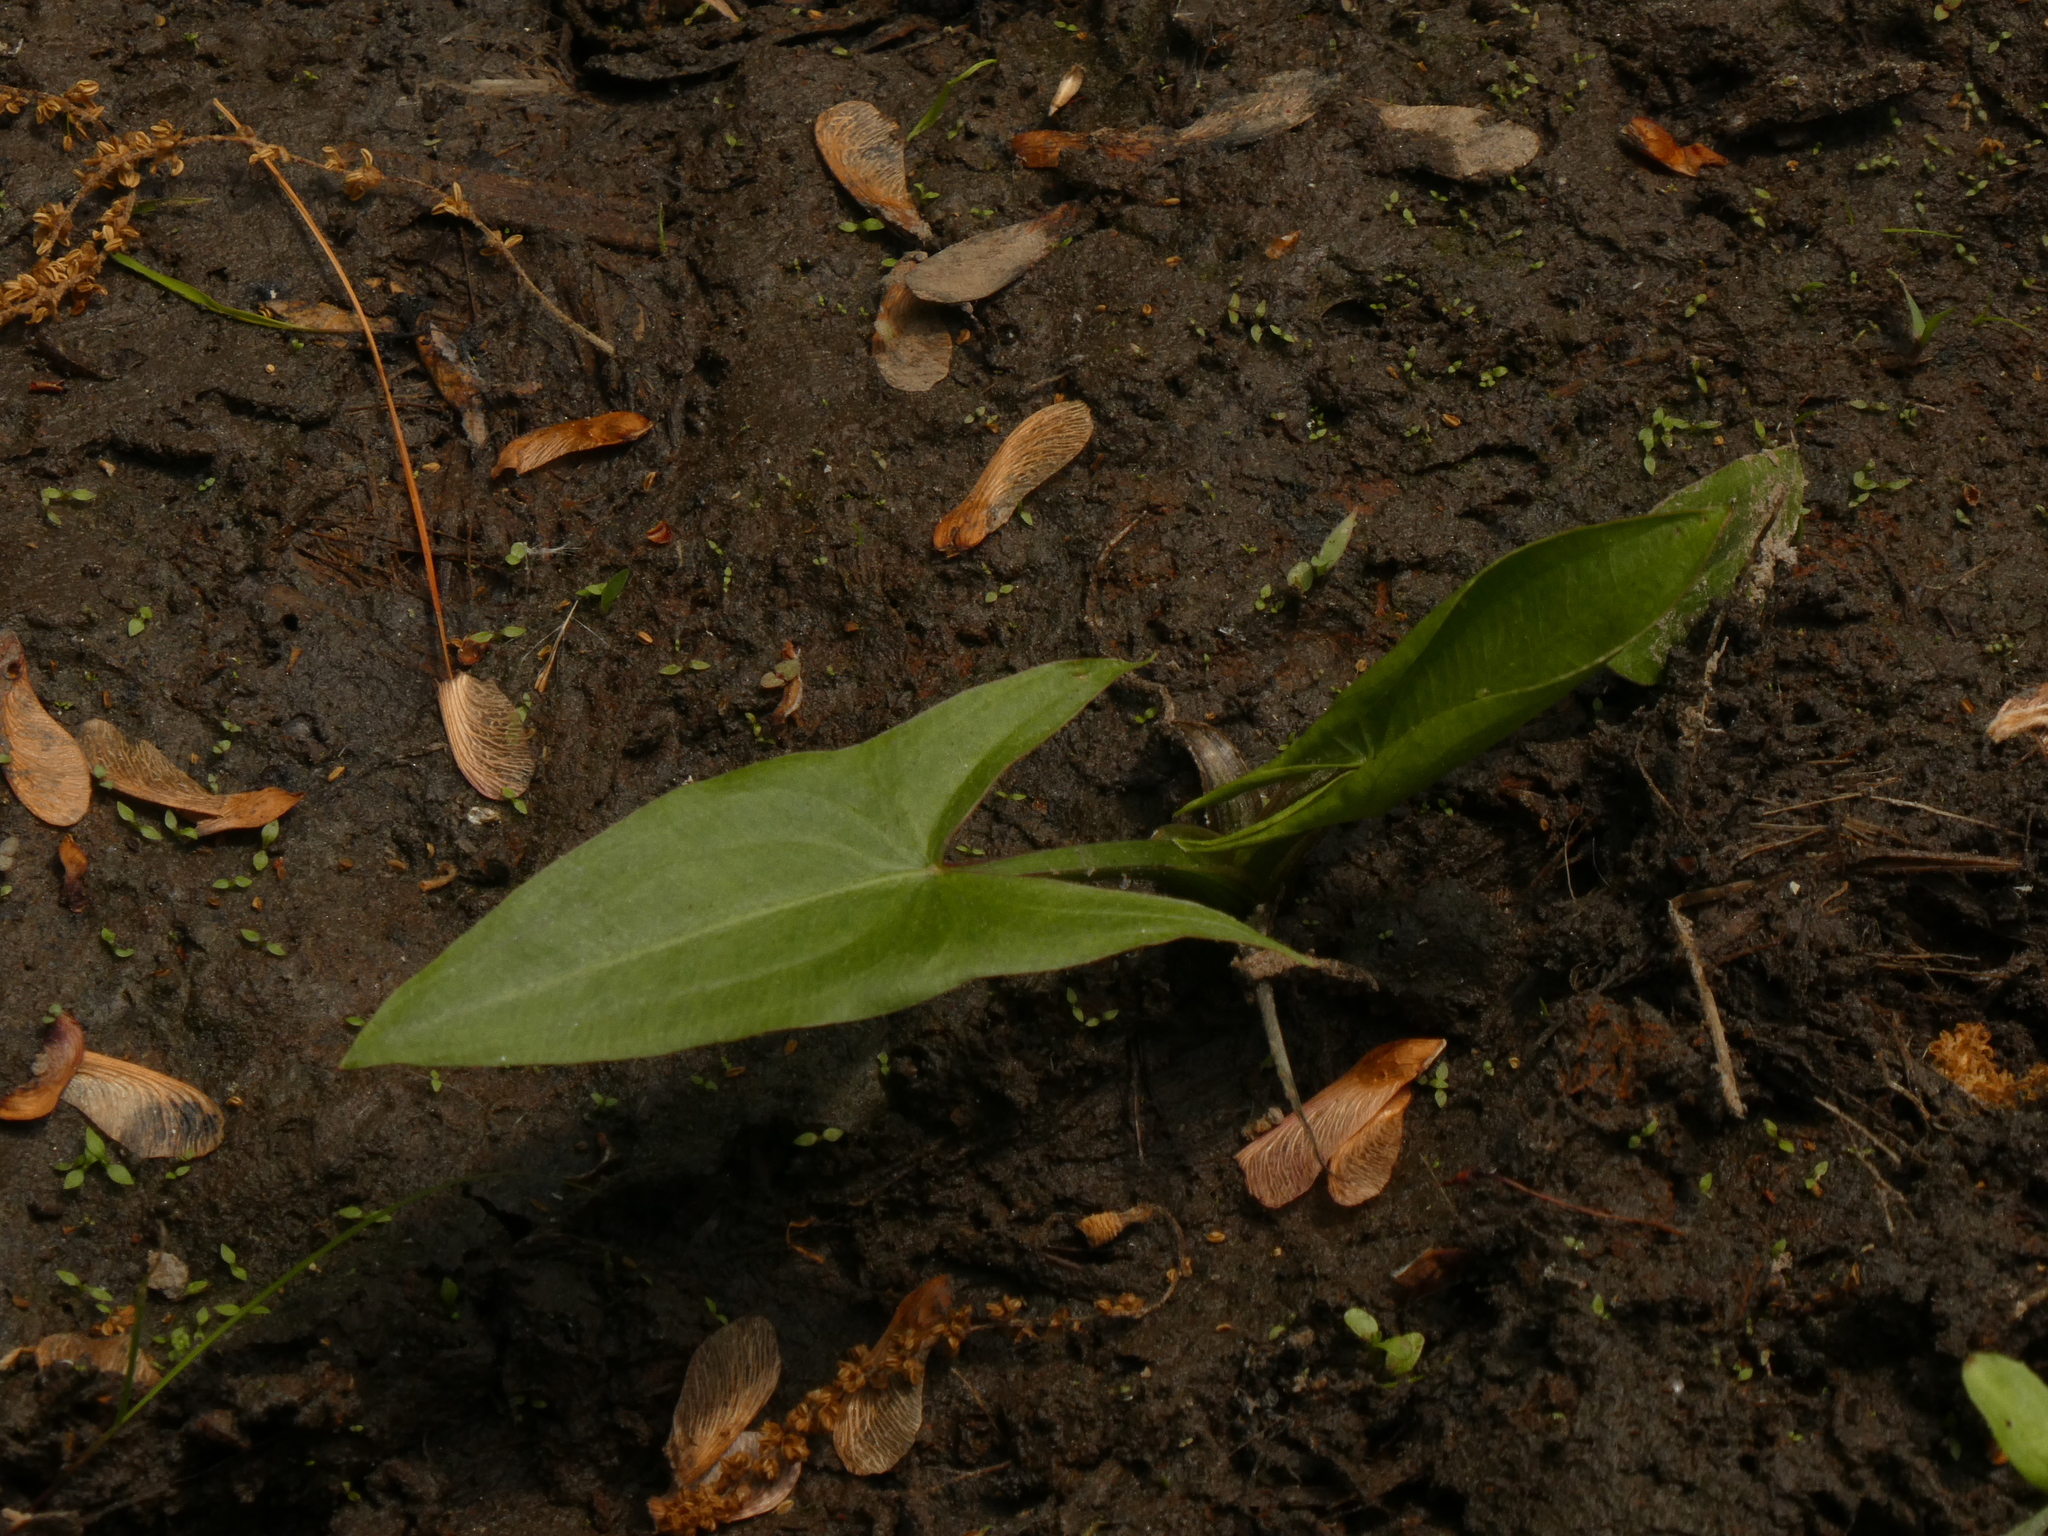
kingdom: Plantae
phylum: Tracheophyta
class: Liliopsida
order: Alismatales
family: Alismataceae
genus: Sagittaria
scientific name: Sagittaria latifolia
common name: Duck-potato
